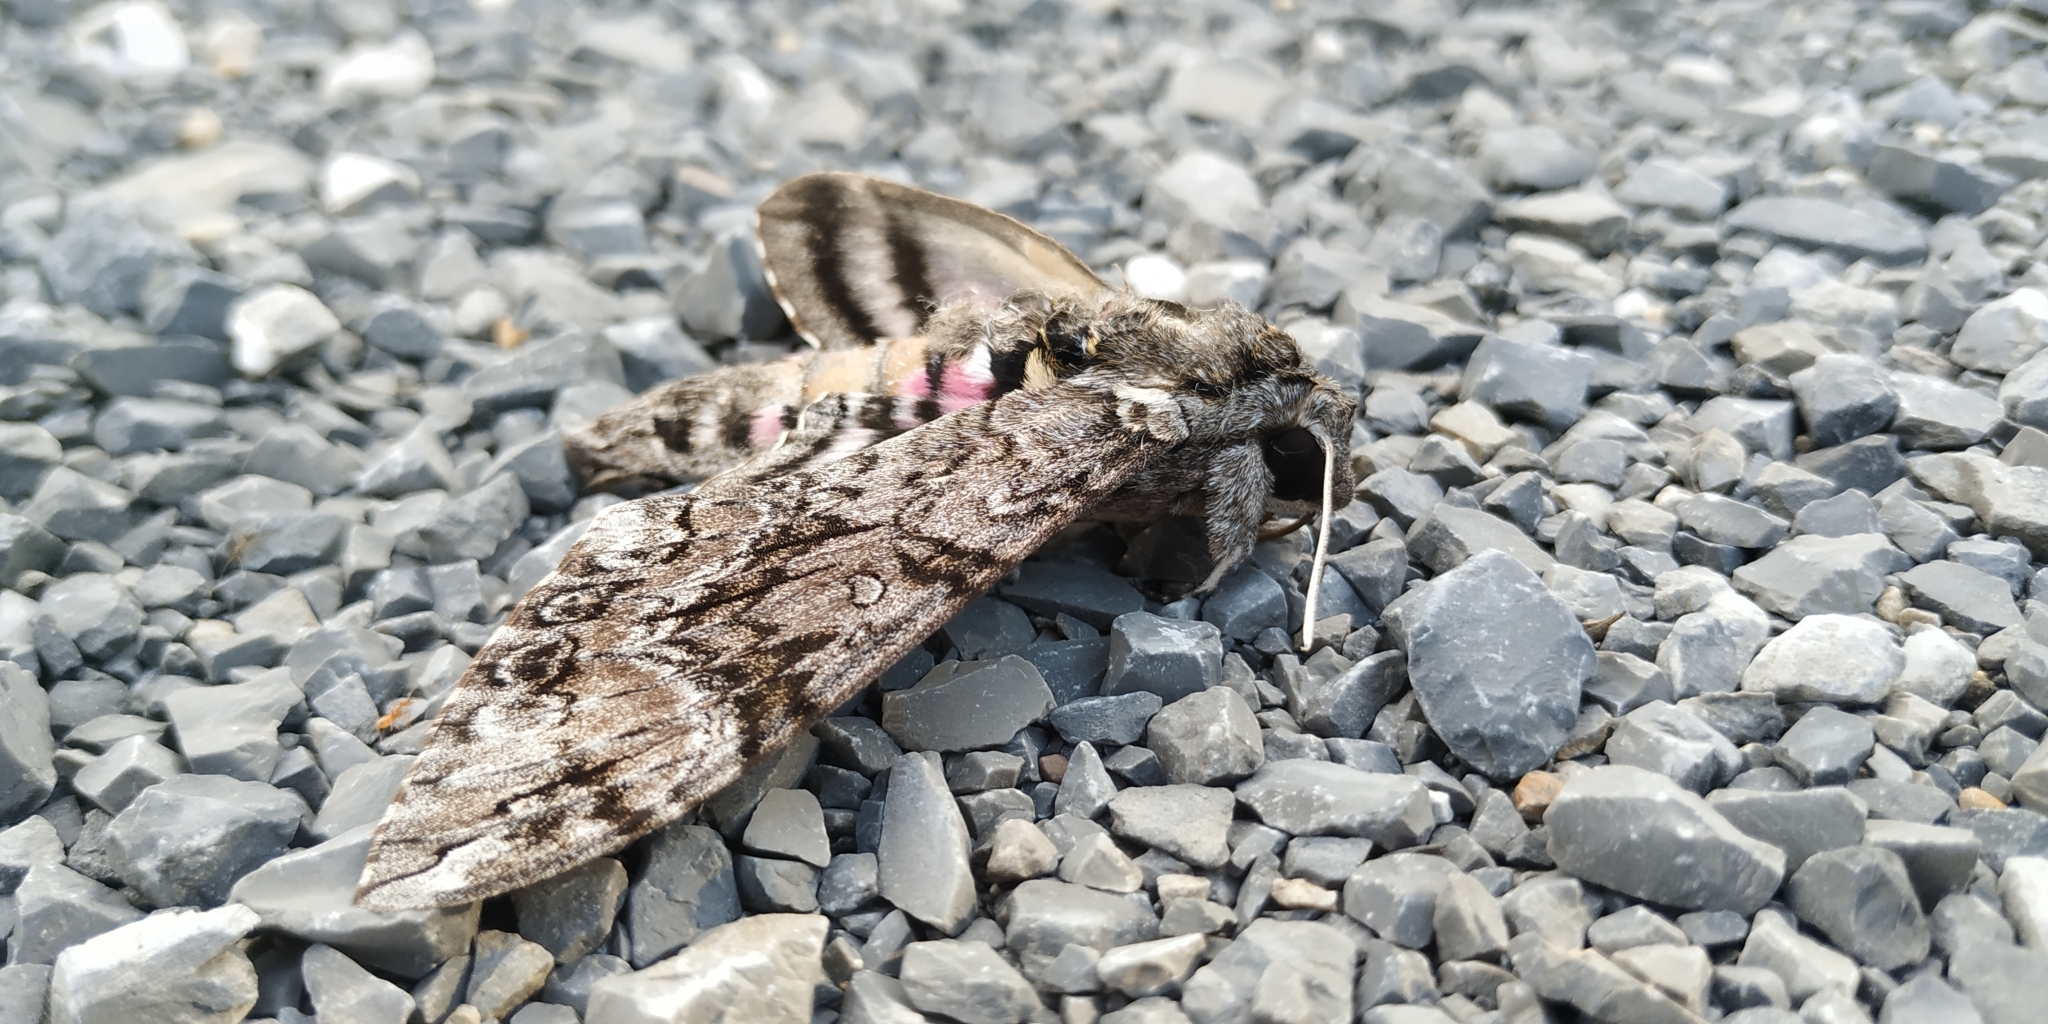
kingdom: Animalia
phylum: Arthropoda
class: Insecta
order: Lepidoptera
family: Sphingidae
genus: Agrius
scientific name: Agrius cingulata
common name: Pink-spotted hawkmoth
